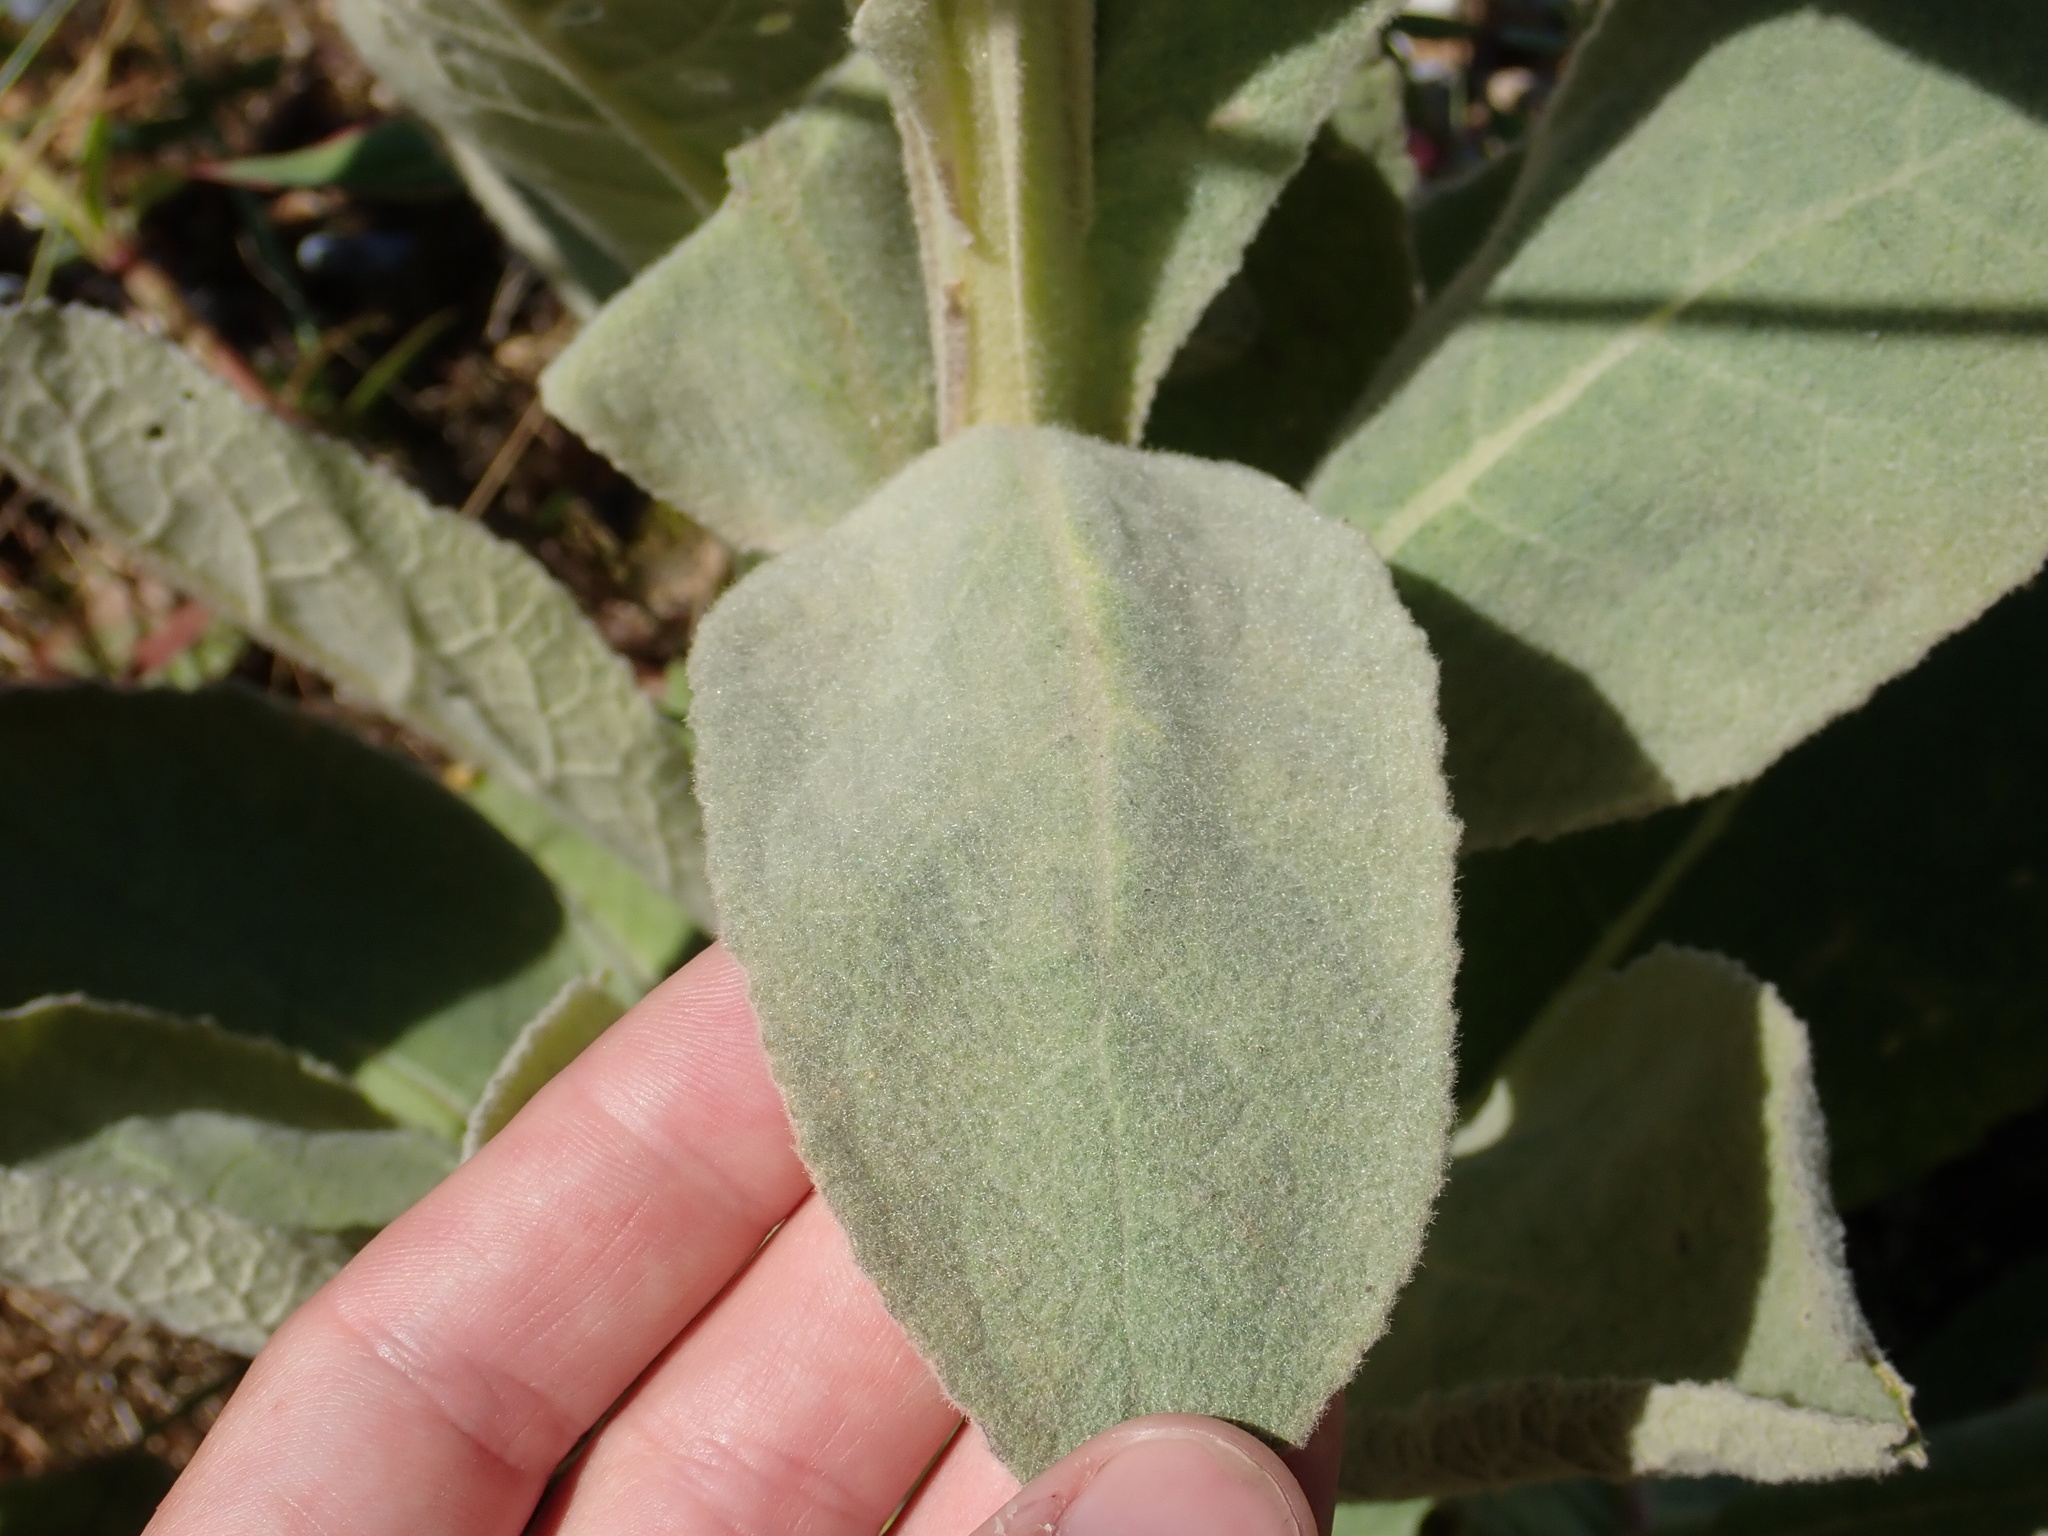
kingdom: Plantae
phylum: Tracheophyta
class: Magnoliopsida
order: Lamiales
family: Scrophulariaceae
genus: Verbascum
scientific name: Verbascum thapsus
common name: Common mullein
